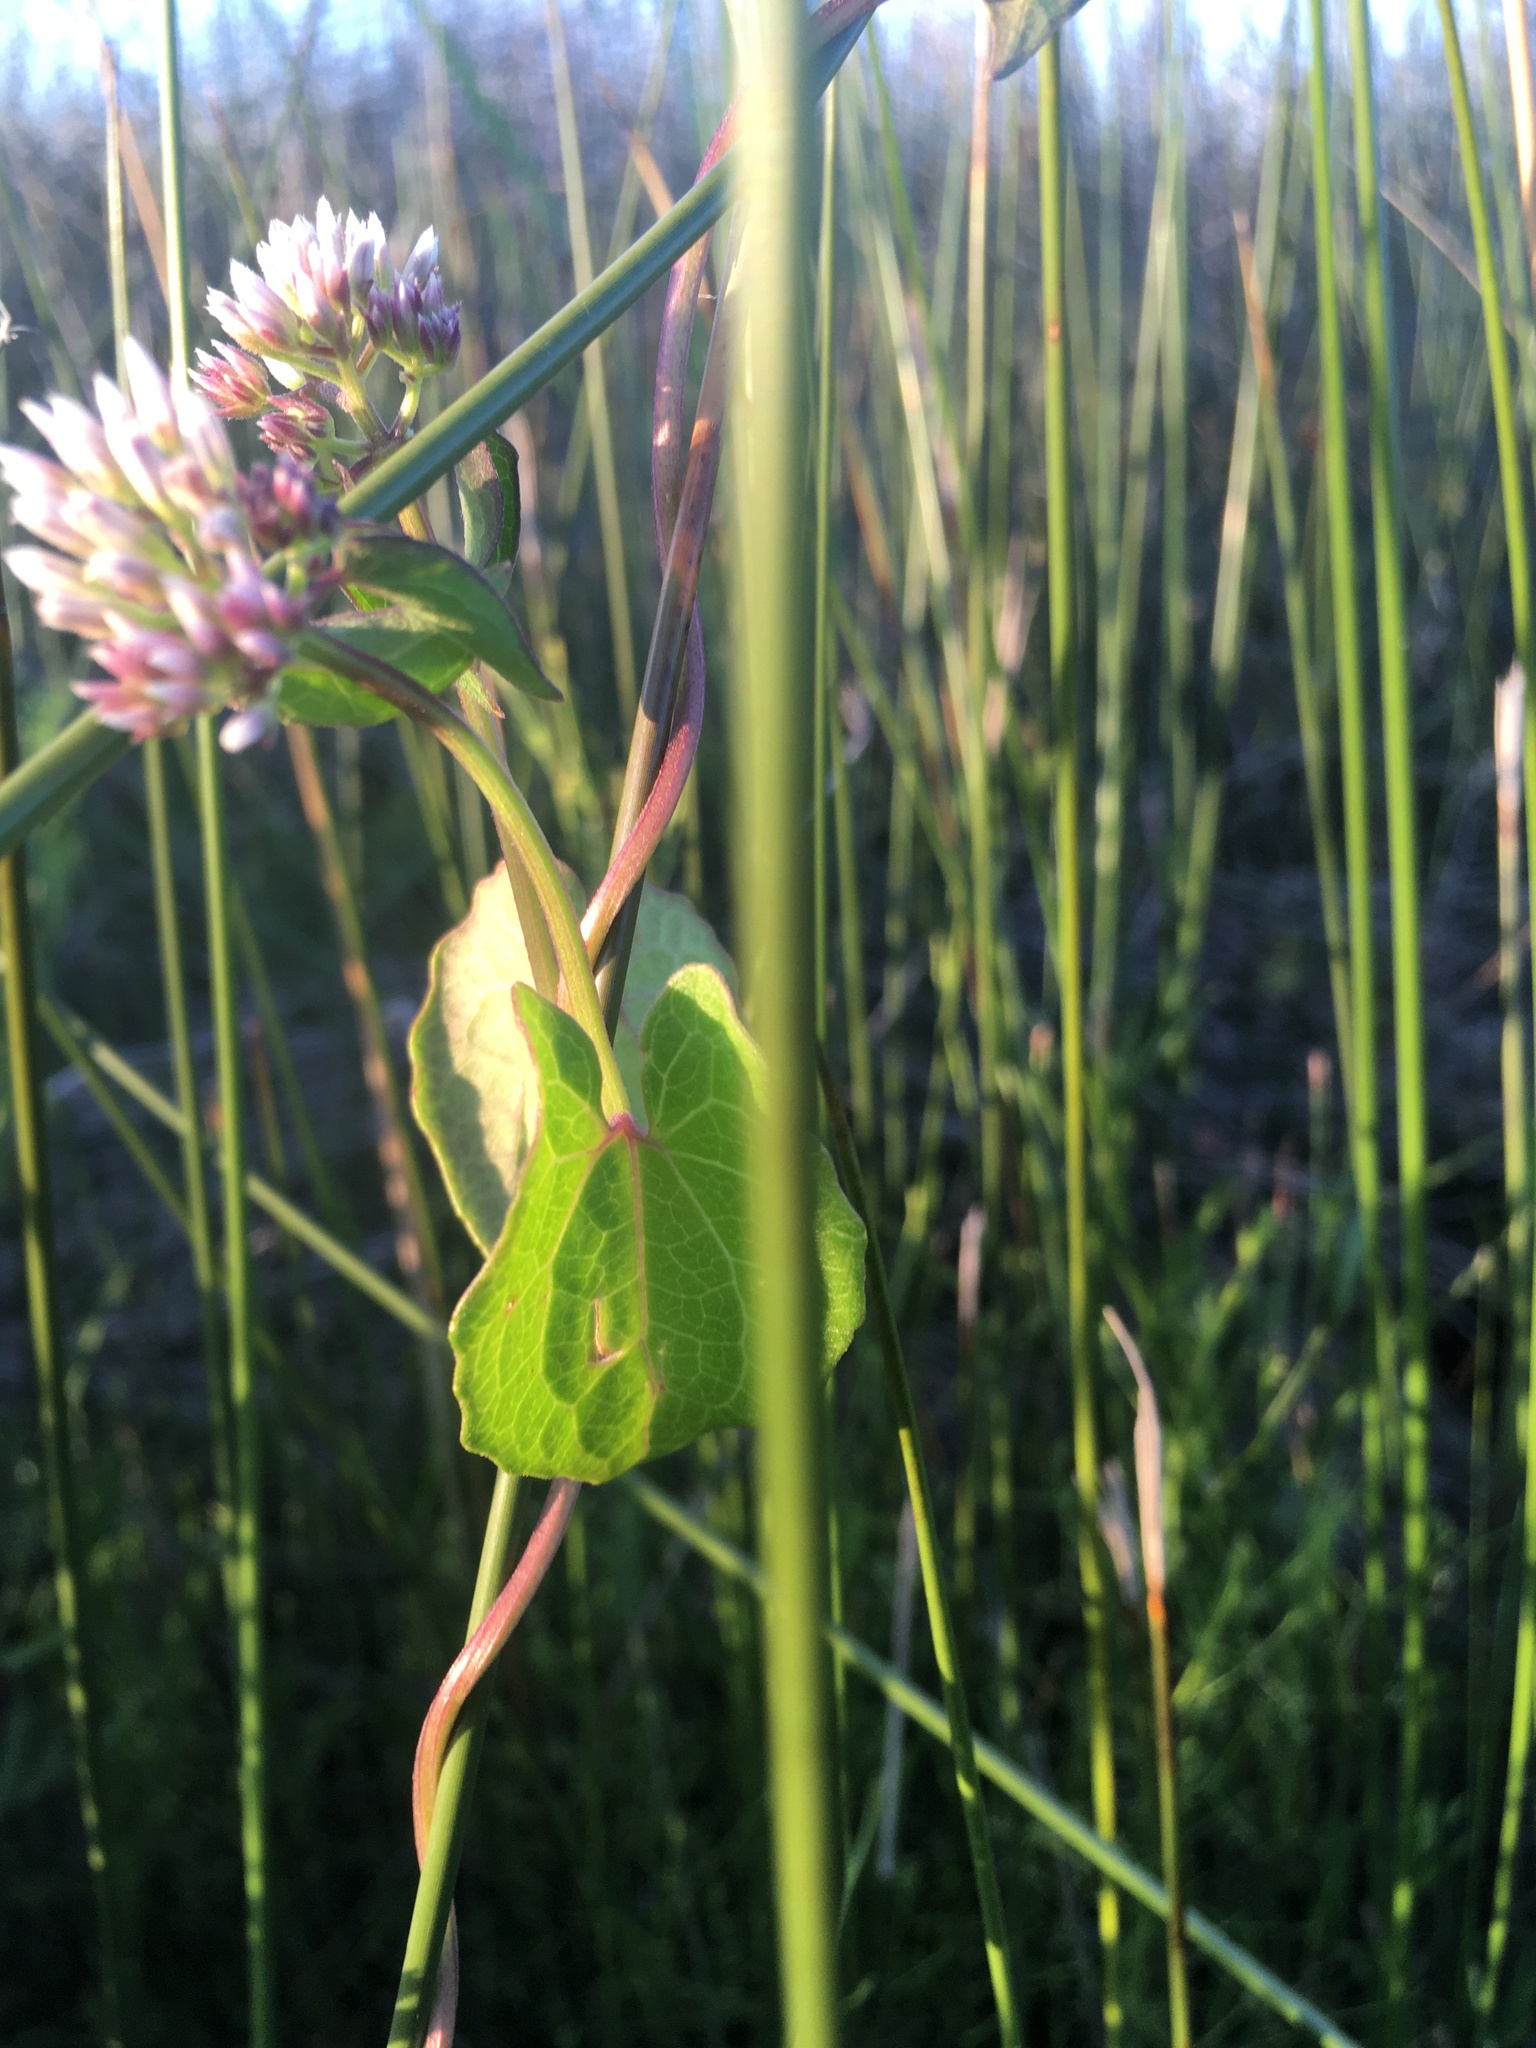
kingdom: Plantae
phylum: Tracheophyta
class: Magnoliopsida
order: Asterales
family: Asteraceae
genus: Mikania
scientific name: Mikania scandens
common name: Climbing hempvine
